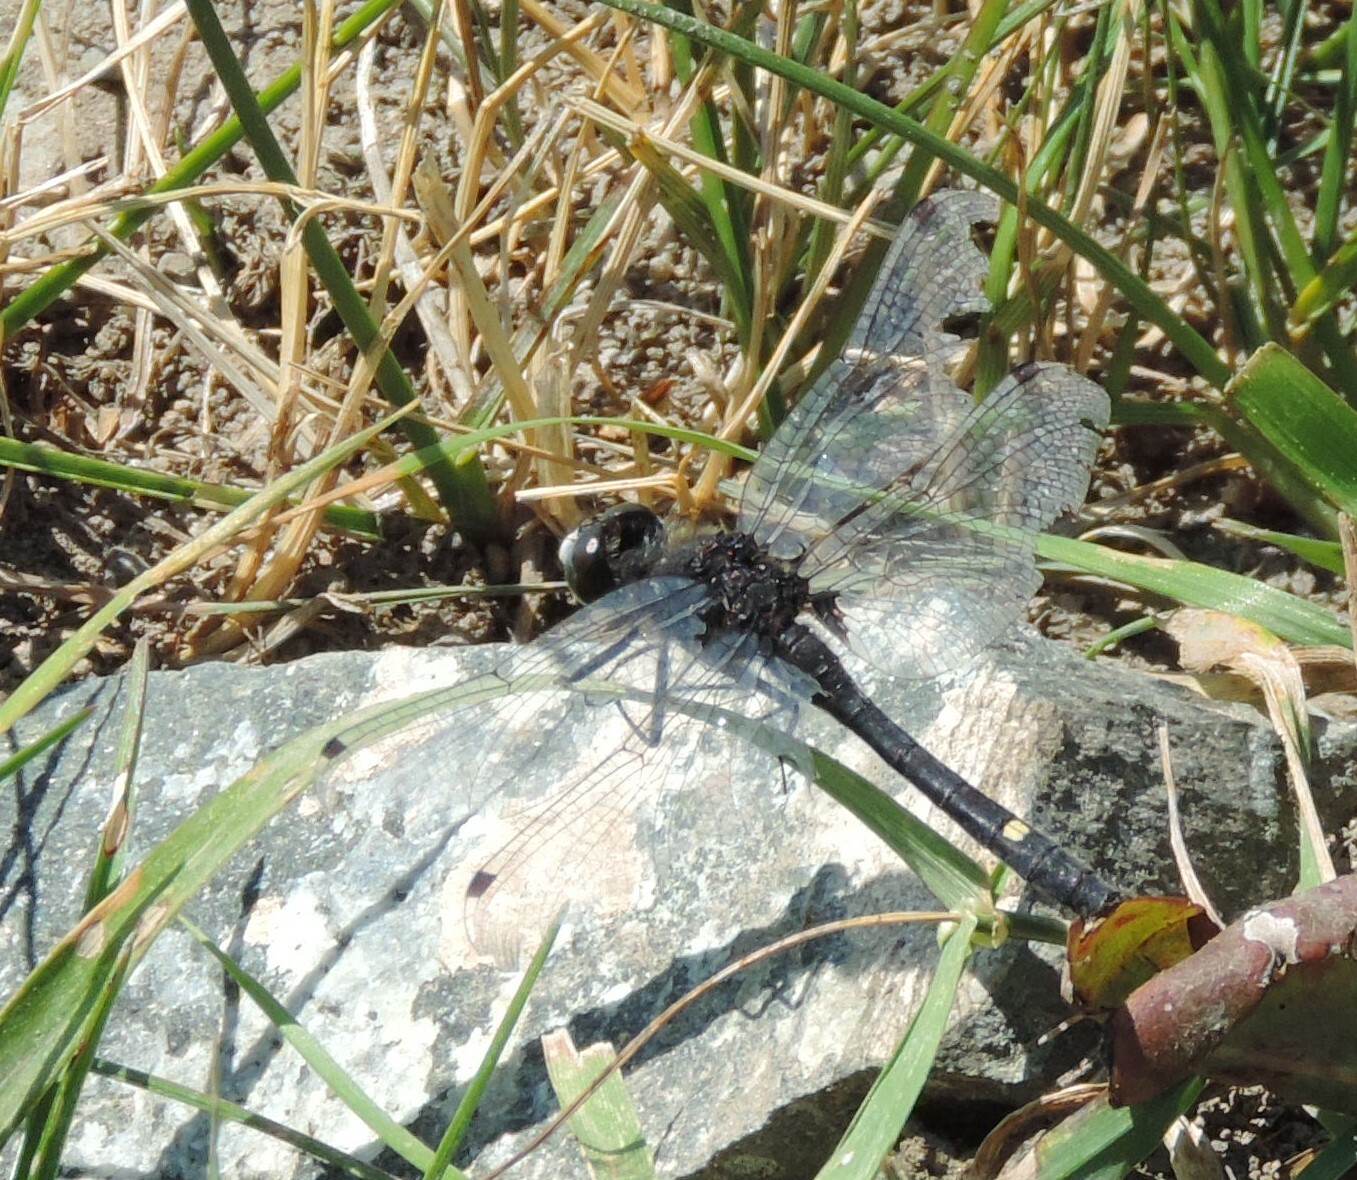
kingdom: Animalia
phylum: Arthropoda
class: Insecta
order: Odonata
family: Libellulidae
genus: Leucorrhinia
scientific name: Leucorrhinia intacta
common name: Dot-tailed whiteface
